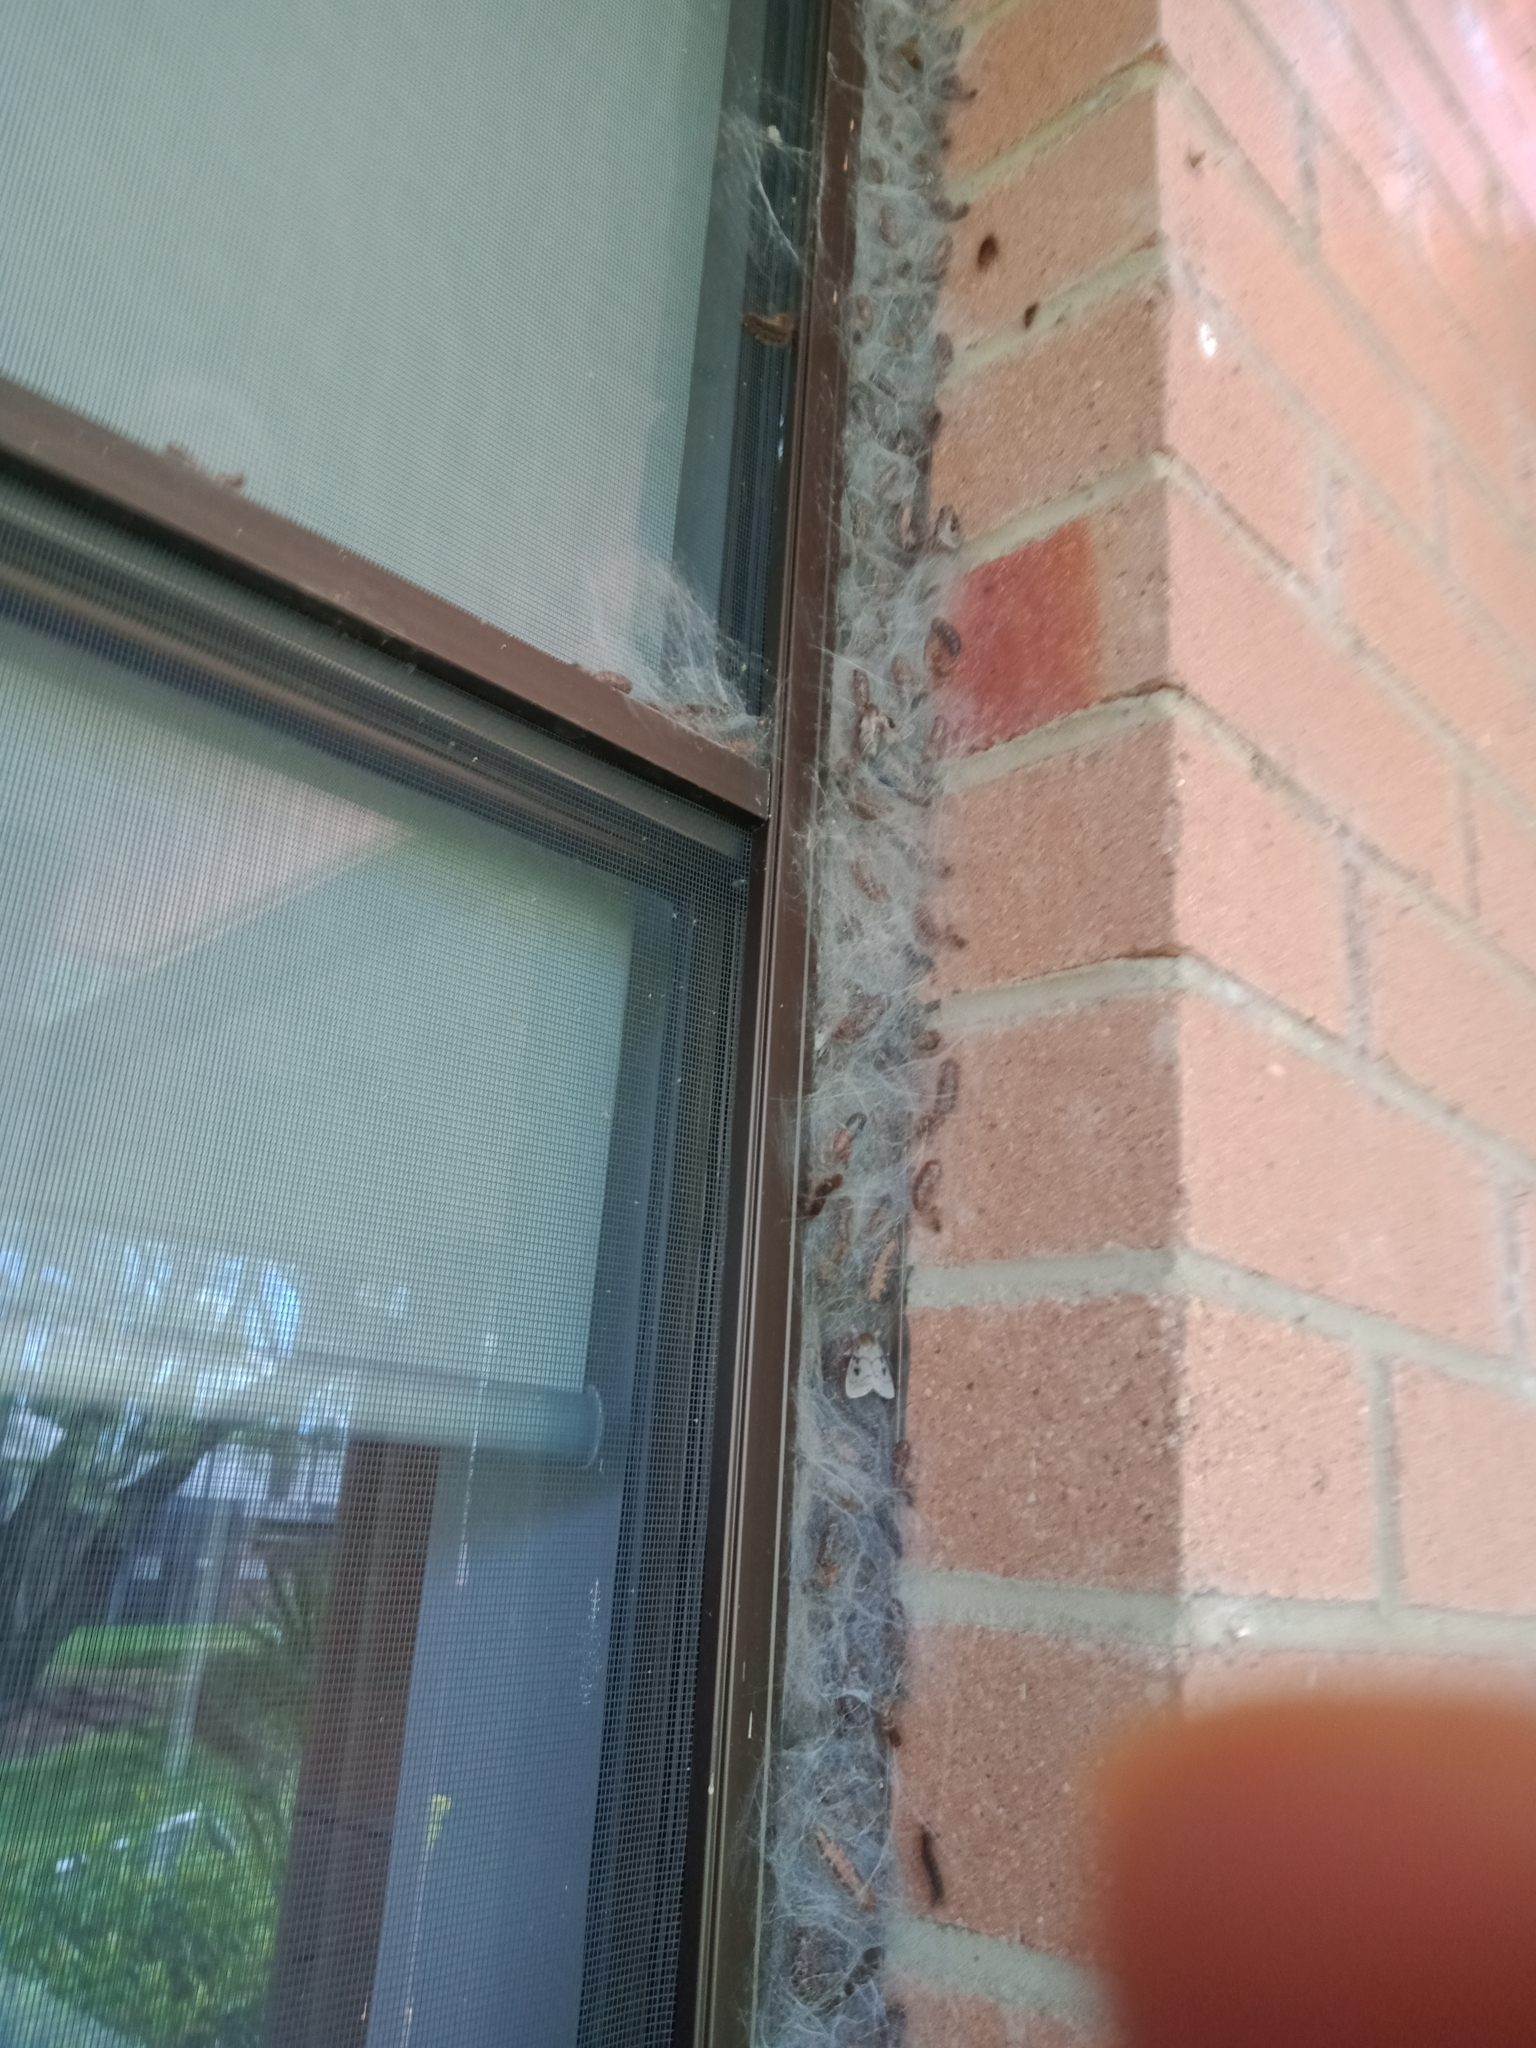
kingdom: Animalia
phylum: Arthropoda
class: Insecta
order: Lepidoptera
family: Erebidae
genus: Leptocneria
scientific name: Leptocneria reducta
